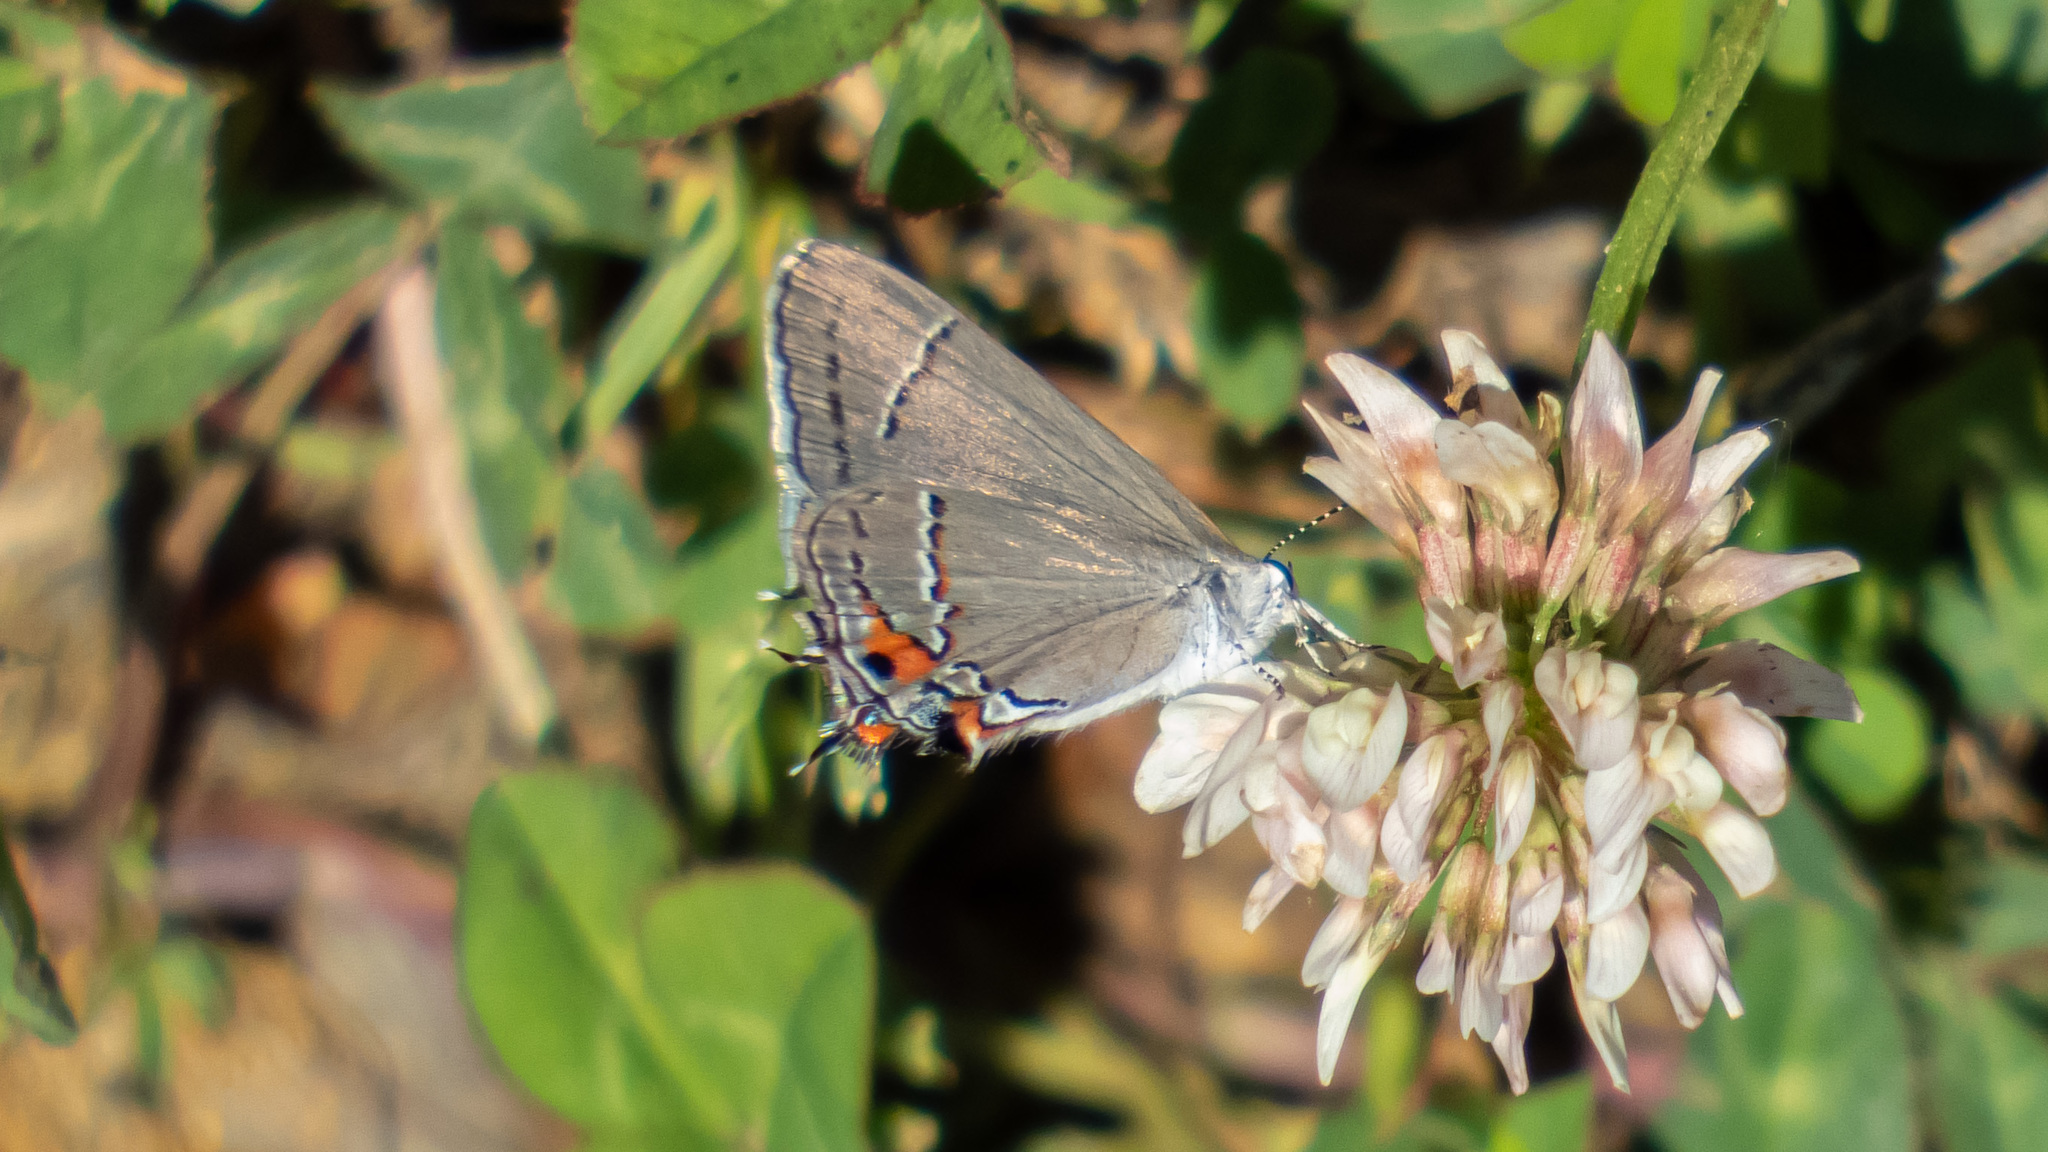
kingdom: Animalia
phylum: Arthropoda
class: Insecta
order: Lepidoptera
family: Lycaenidae
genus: Strymon
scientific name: Strymon melinus
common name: Gray hairstreak
